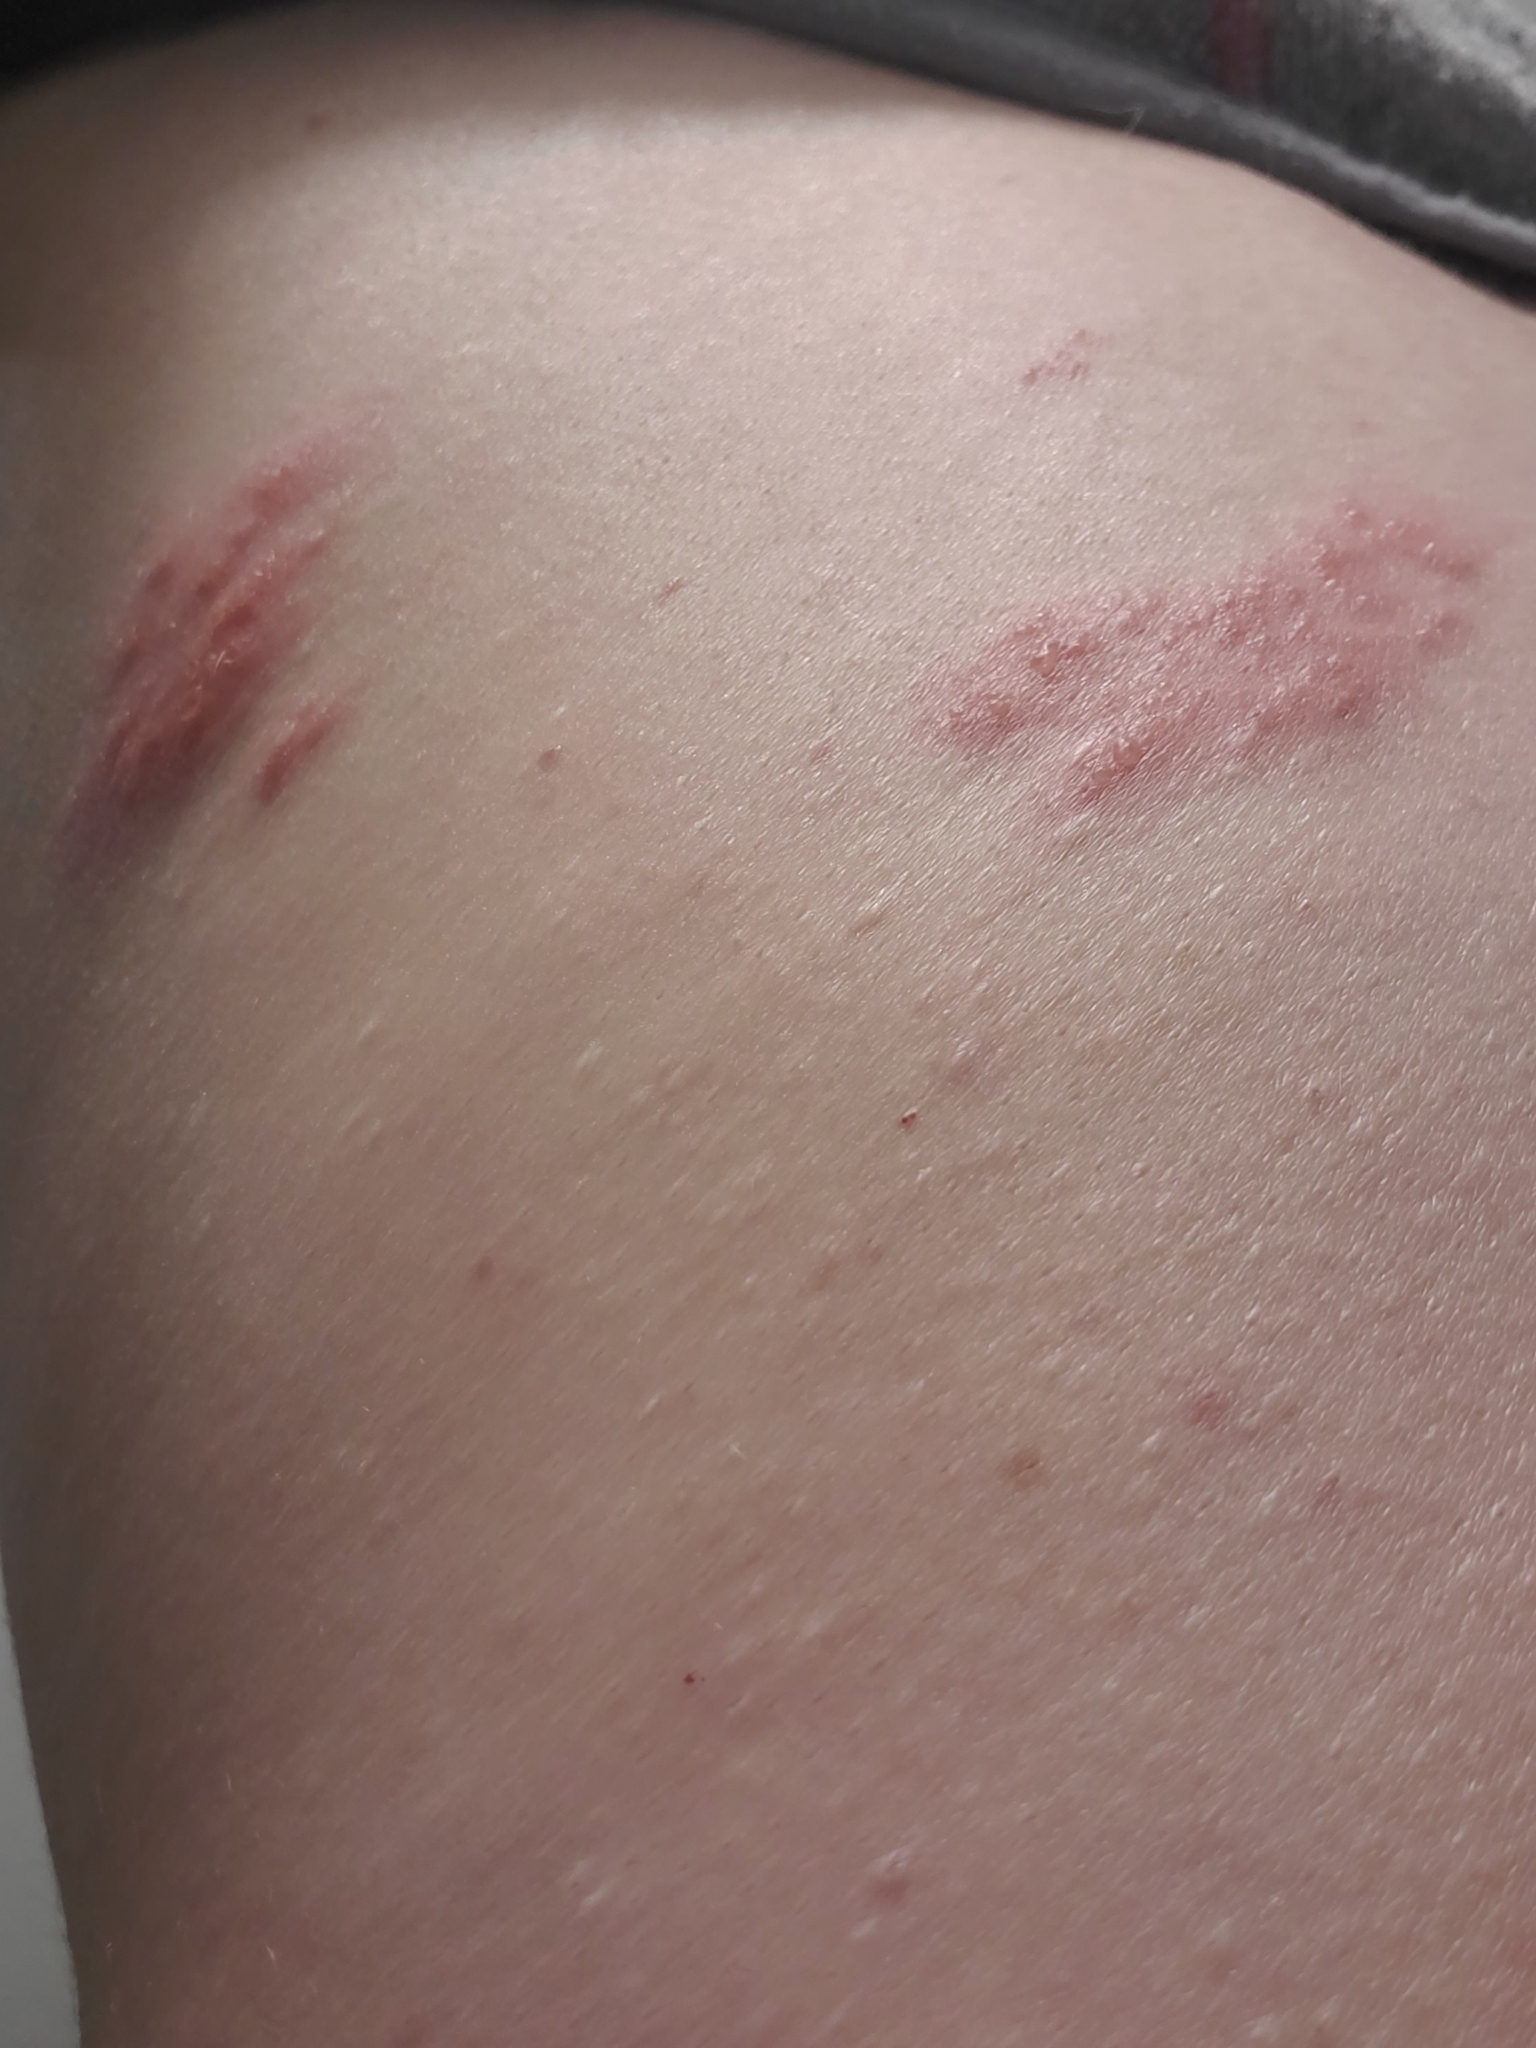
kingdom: Viruses
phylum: Peploviricota
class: Herviviricetes
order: Herpesvirales
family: Herpesviridae
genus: Varicellovirus
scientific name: Varicellovirus
